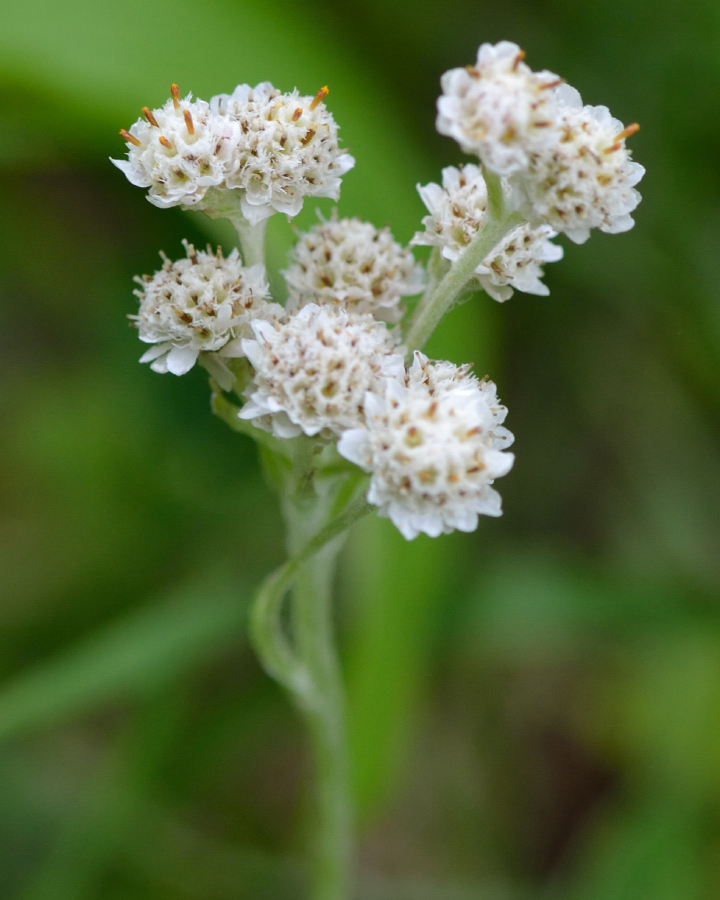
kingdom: Plantae
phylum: Tracheophyta
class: Magnoliopsida
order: Asterales
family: Asteraceae
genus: Antennaria
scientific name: Antennaria dioica
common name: Mountain everlasting
